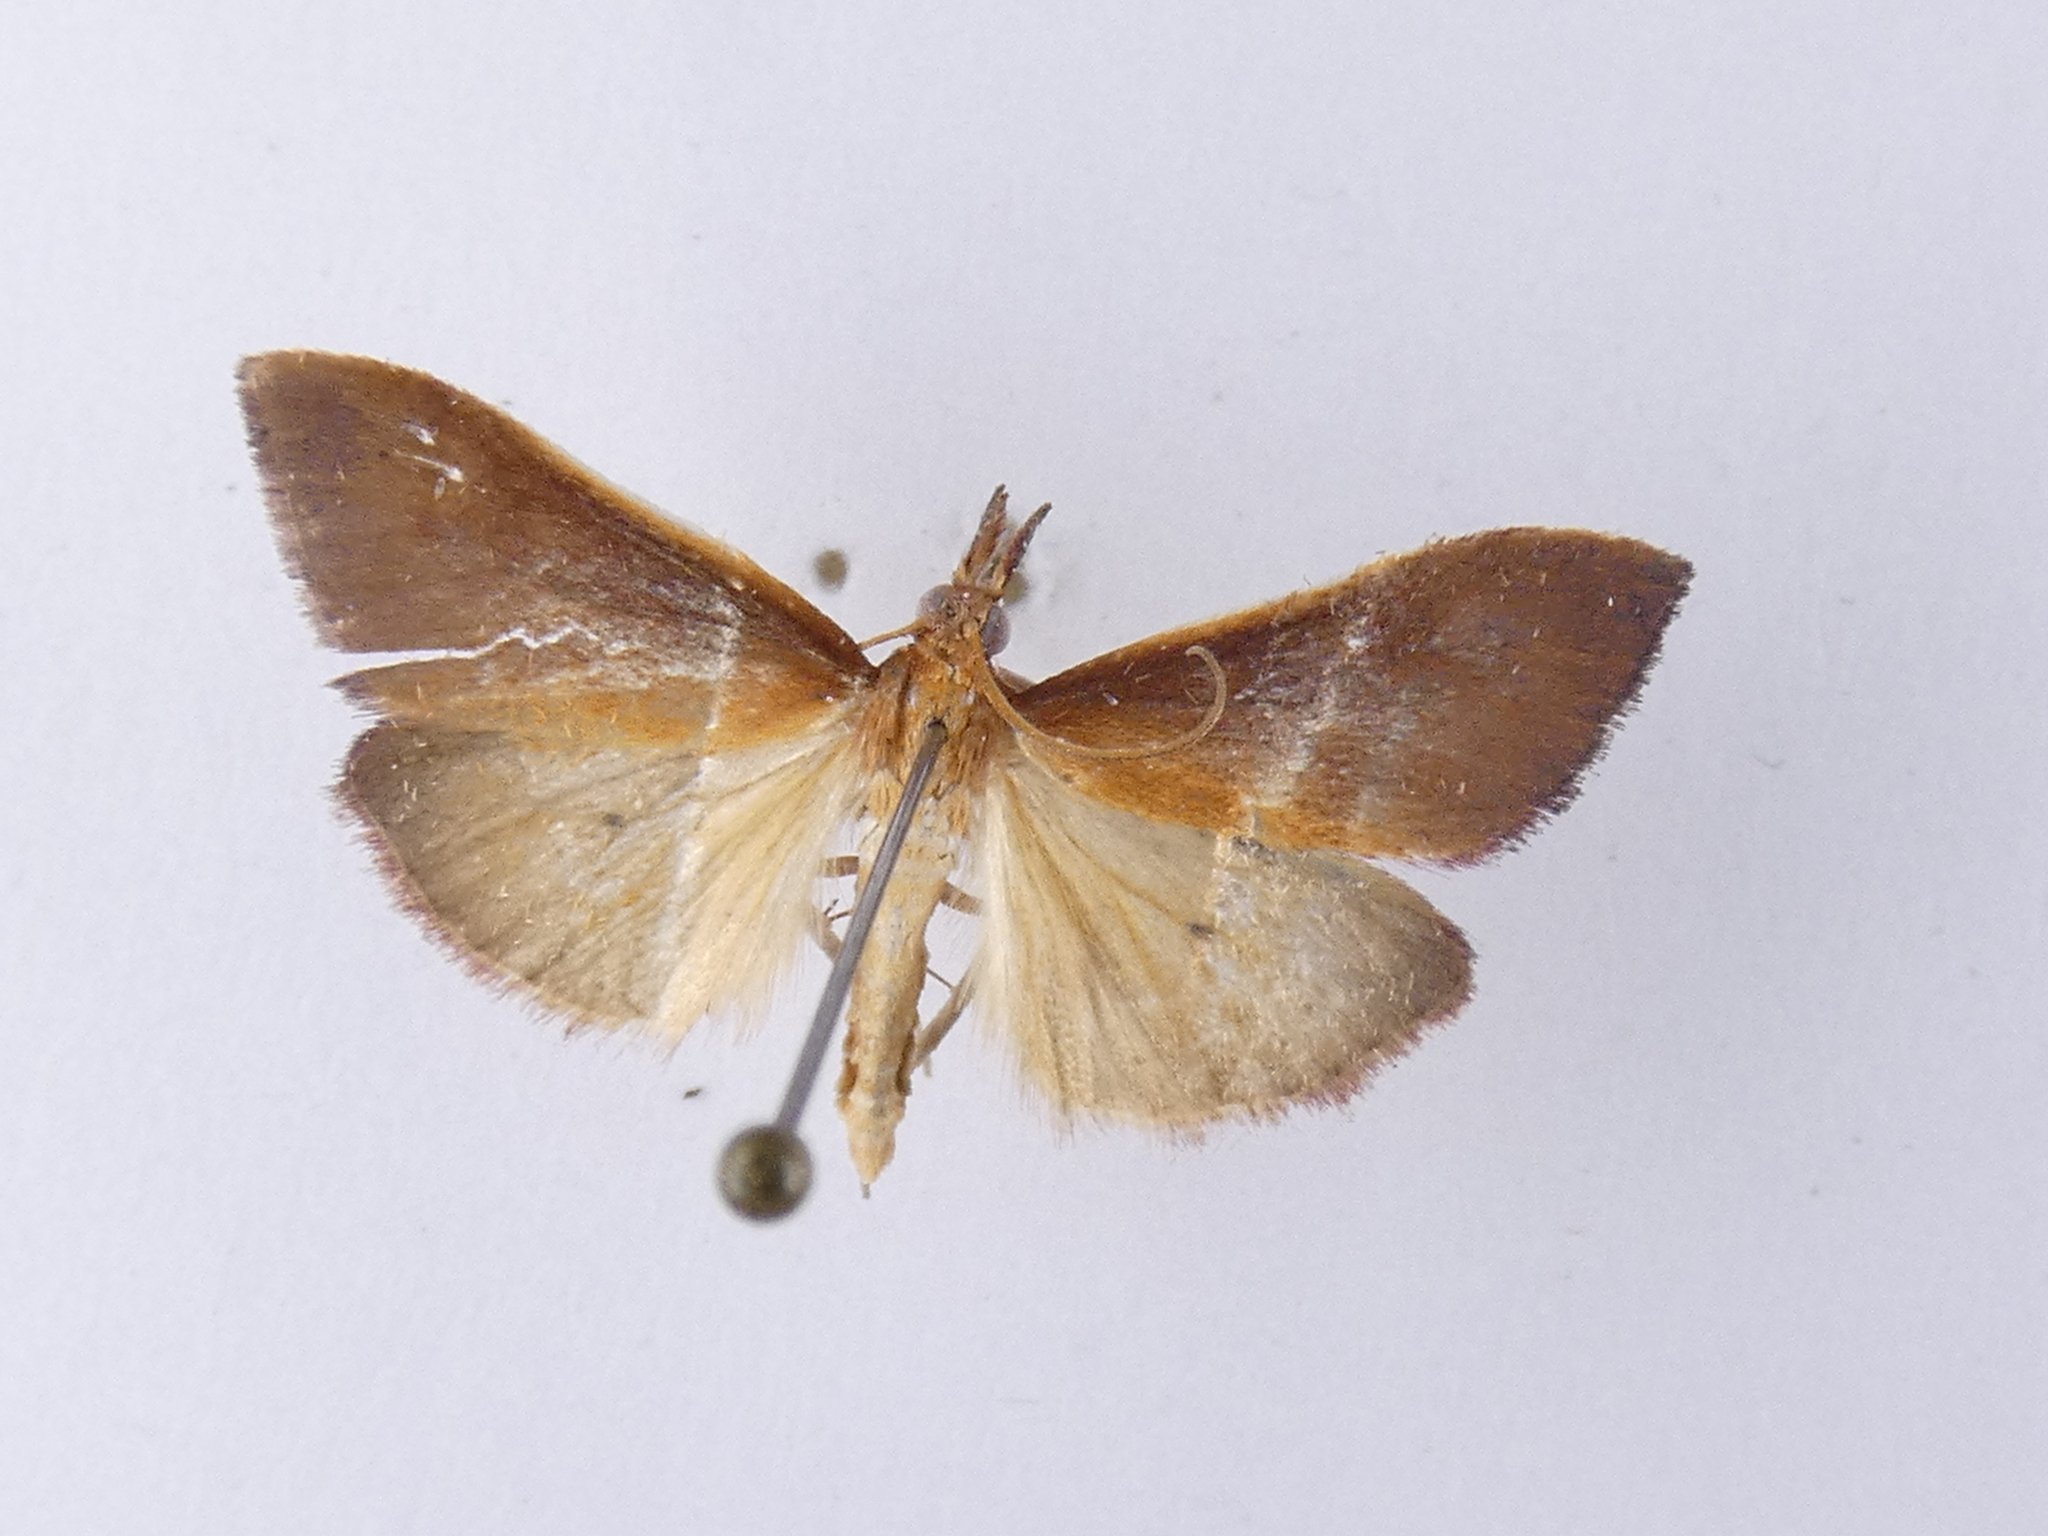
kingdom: Animalia
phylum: Arthropoda
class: Insecta
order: Lepidoptera
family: Crambidae
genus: Udea
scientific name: Udea daiclesalis
